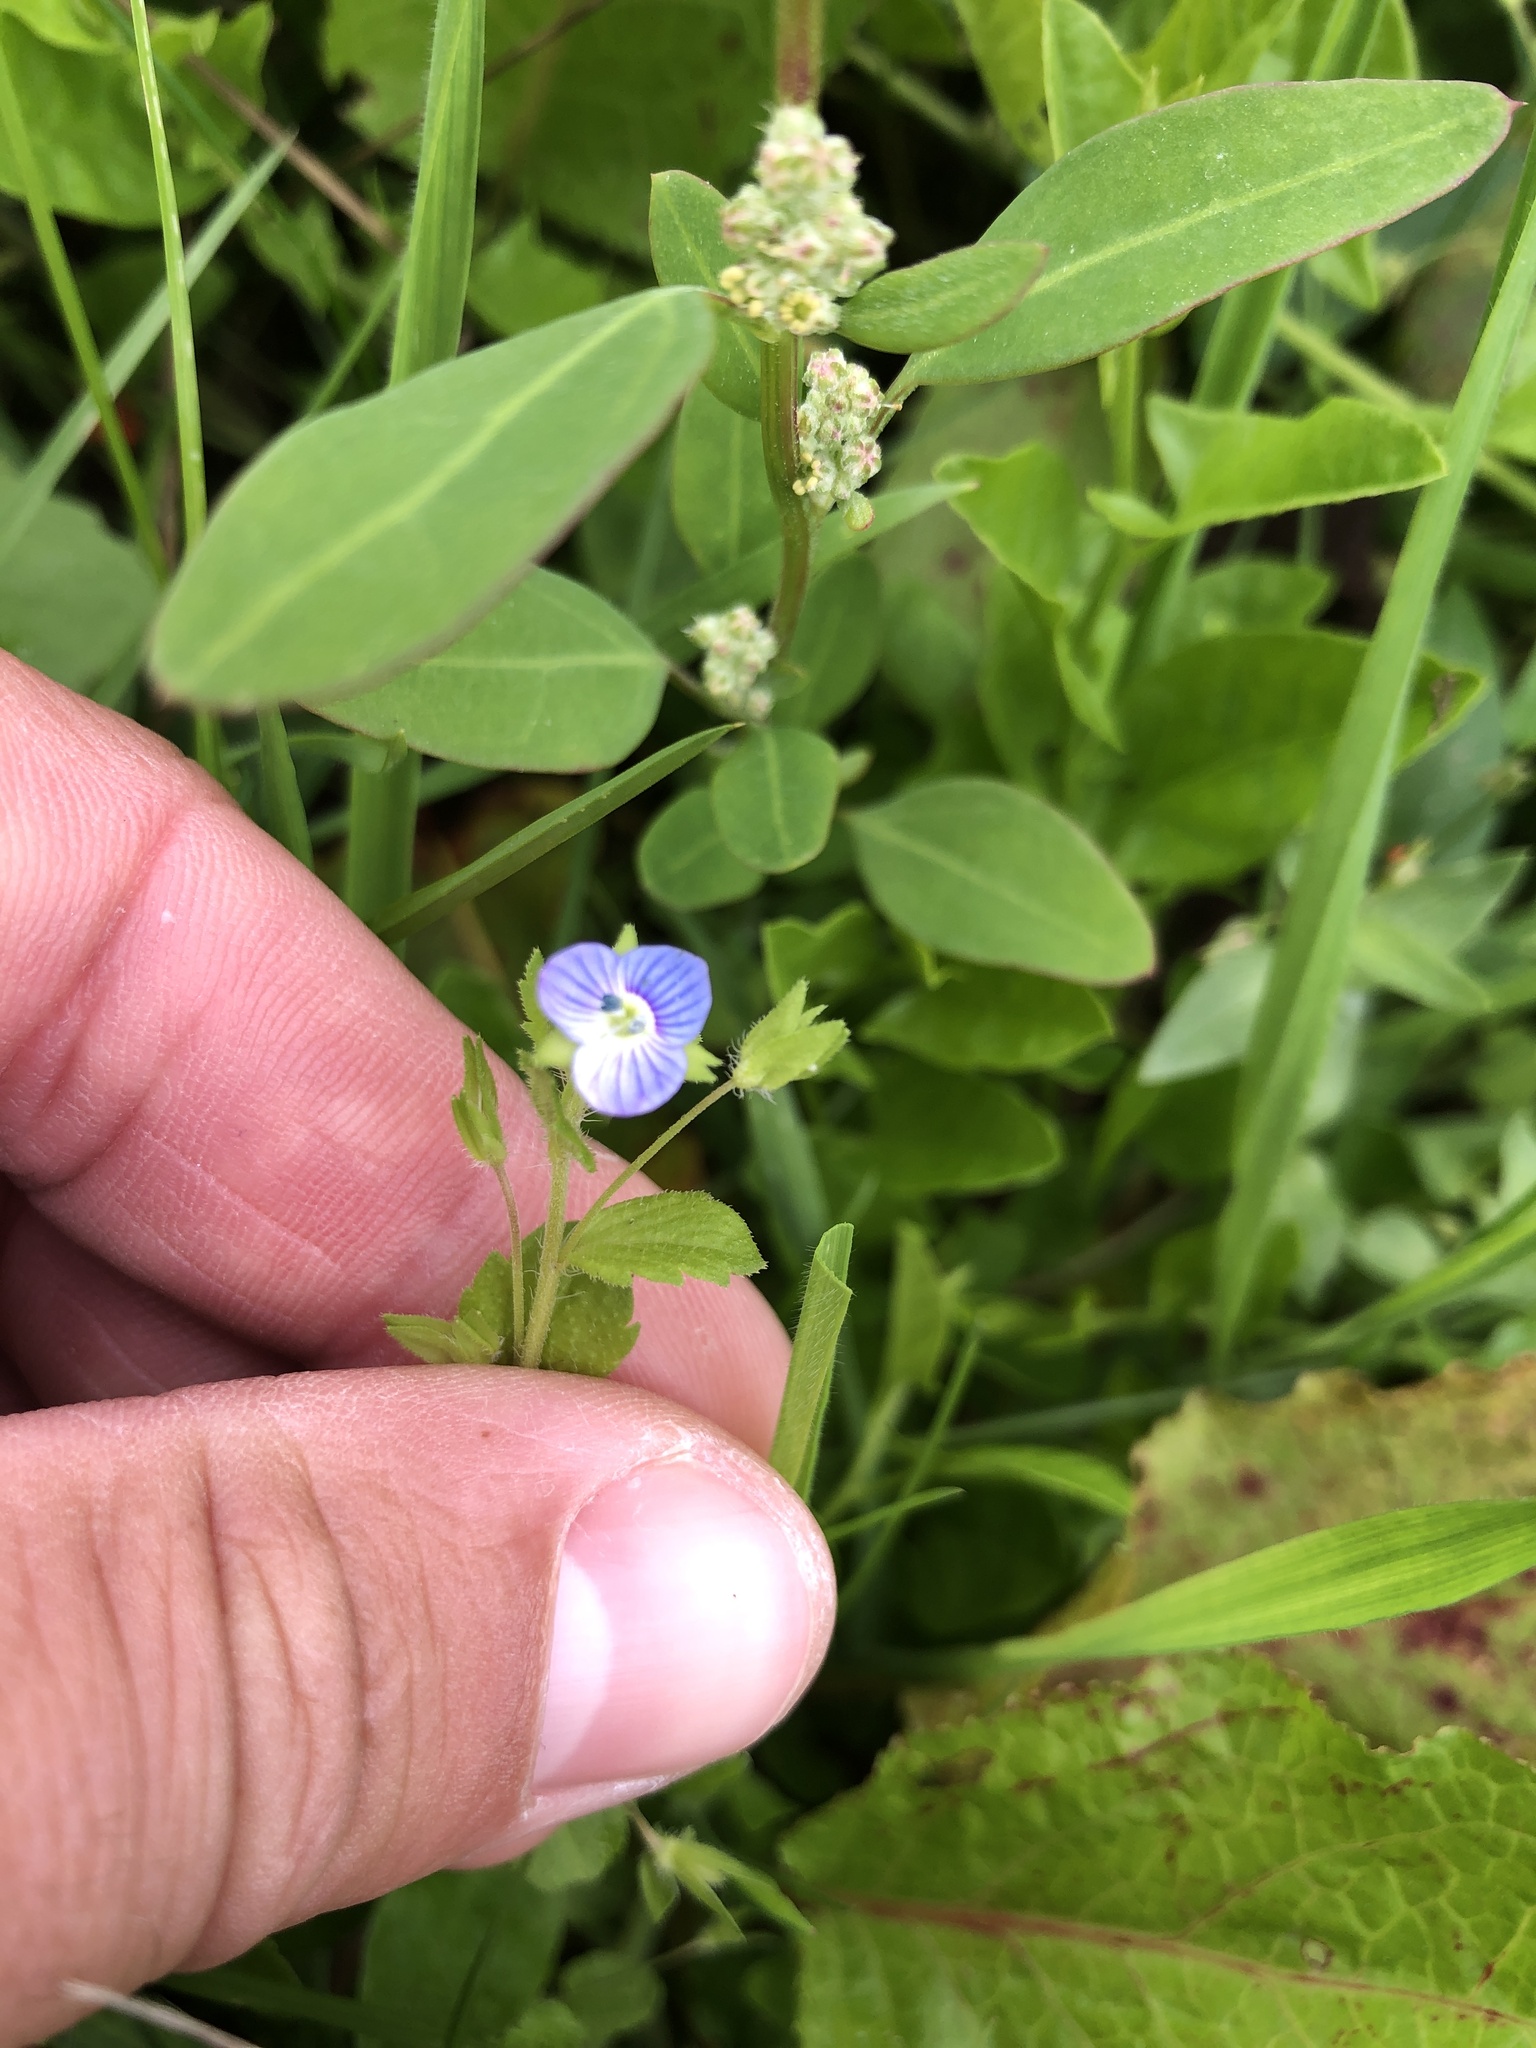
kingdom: Plantae
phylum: Tracheophyta
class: Magnoliopsida
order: Lamiales
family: Plantaginaceae
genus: Veronica
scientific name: Veronica filiformis
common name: Slender speedwell
